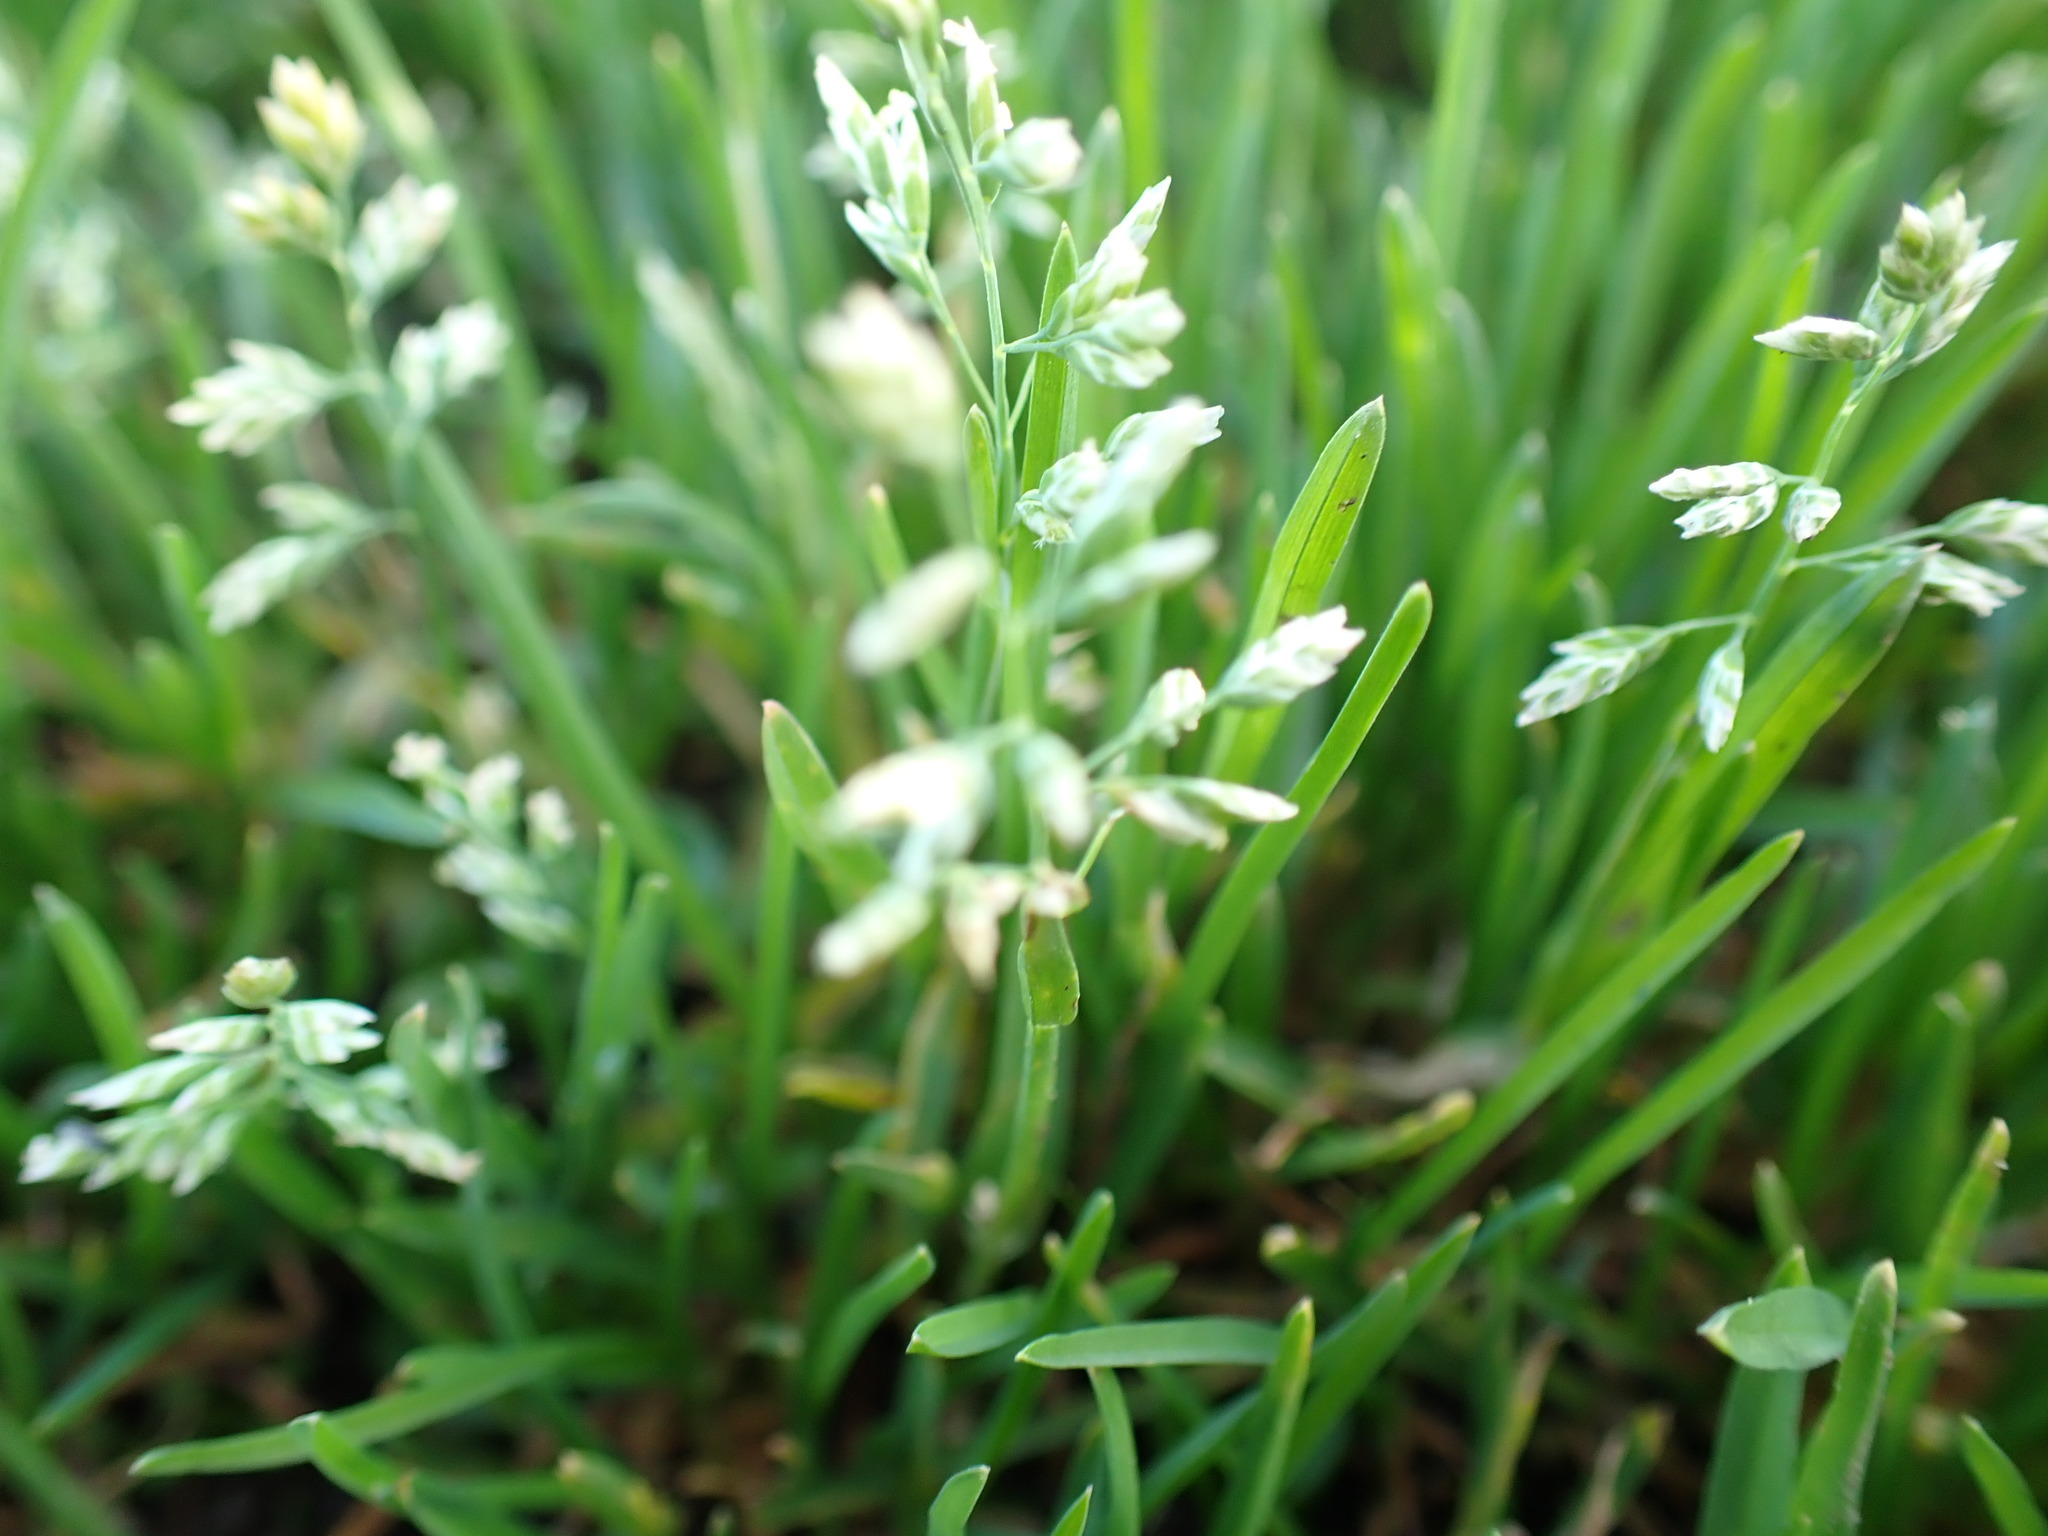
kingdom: Plantae
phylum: Tracheophyta
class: Liliopsida
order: Poales
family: Poaceae
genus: Poa
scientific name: Poa annua
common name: Annual bluegrass
